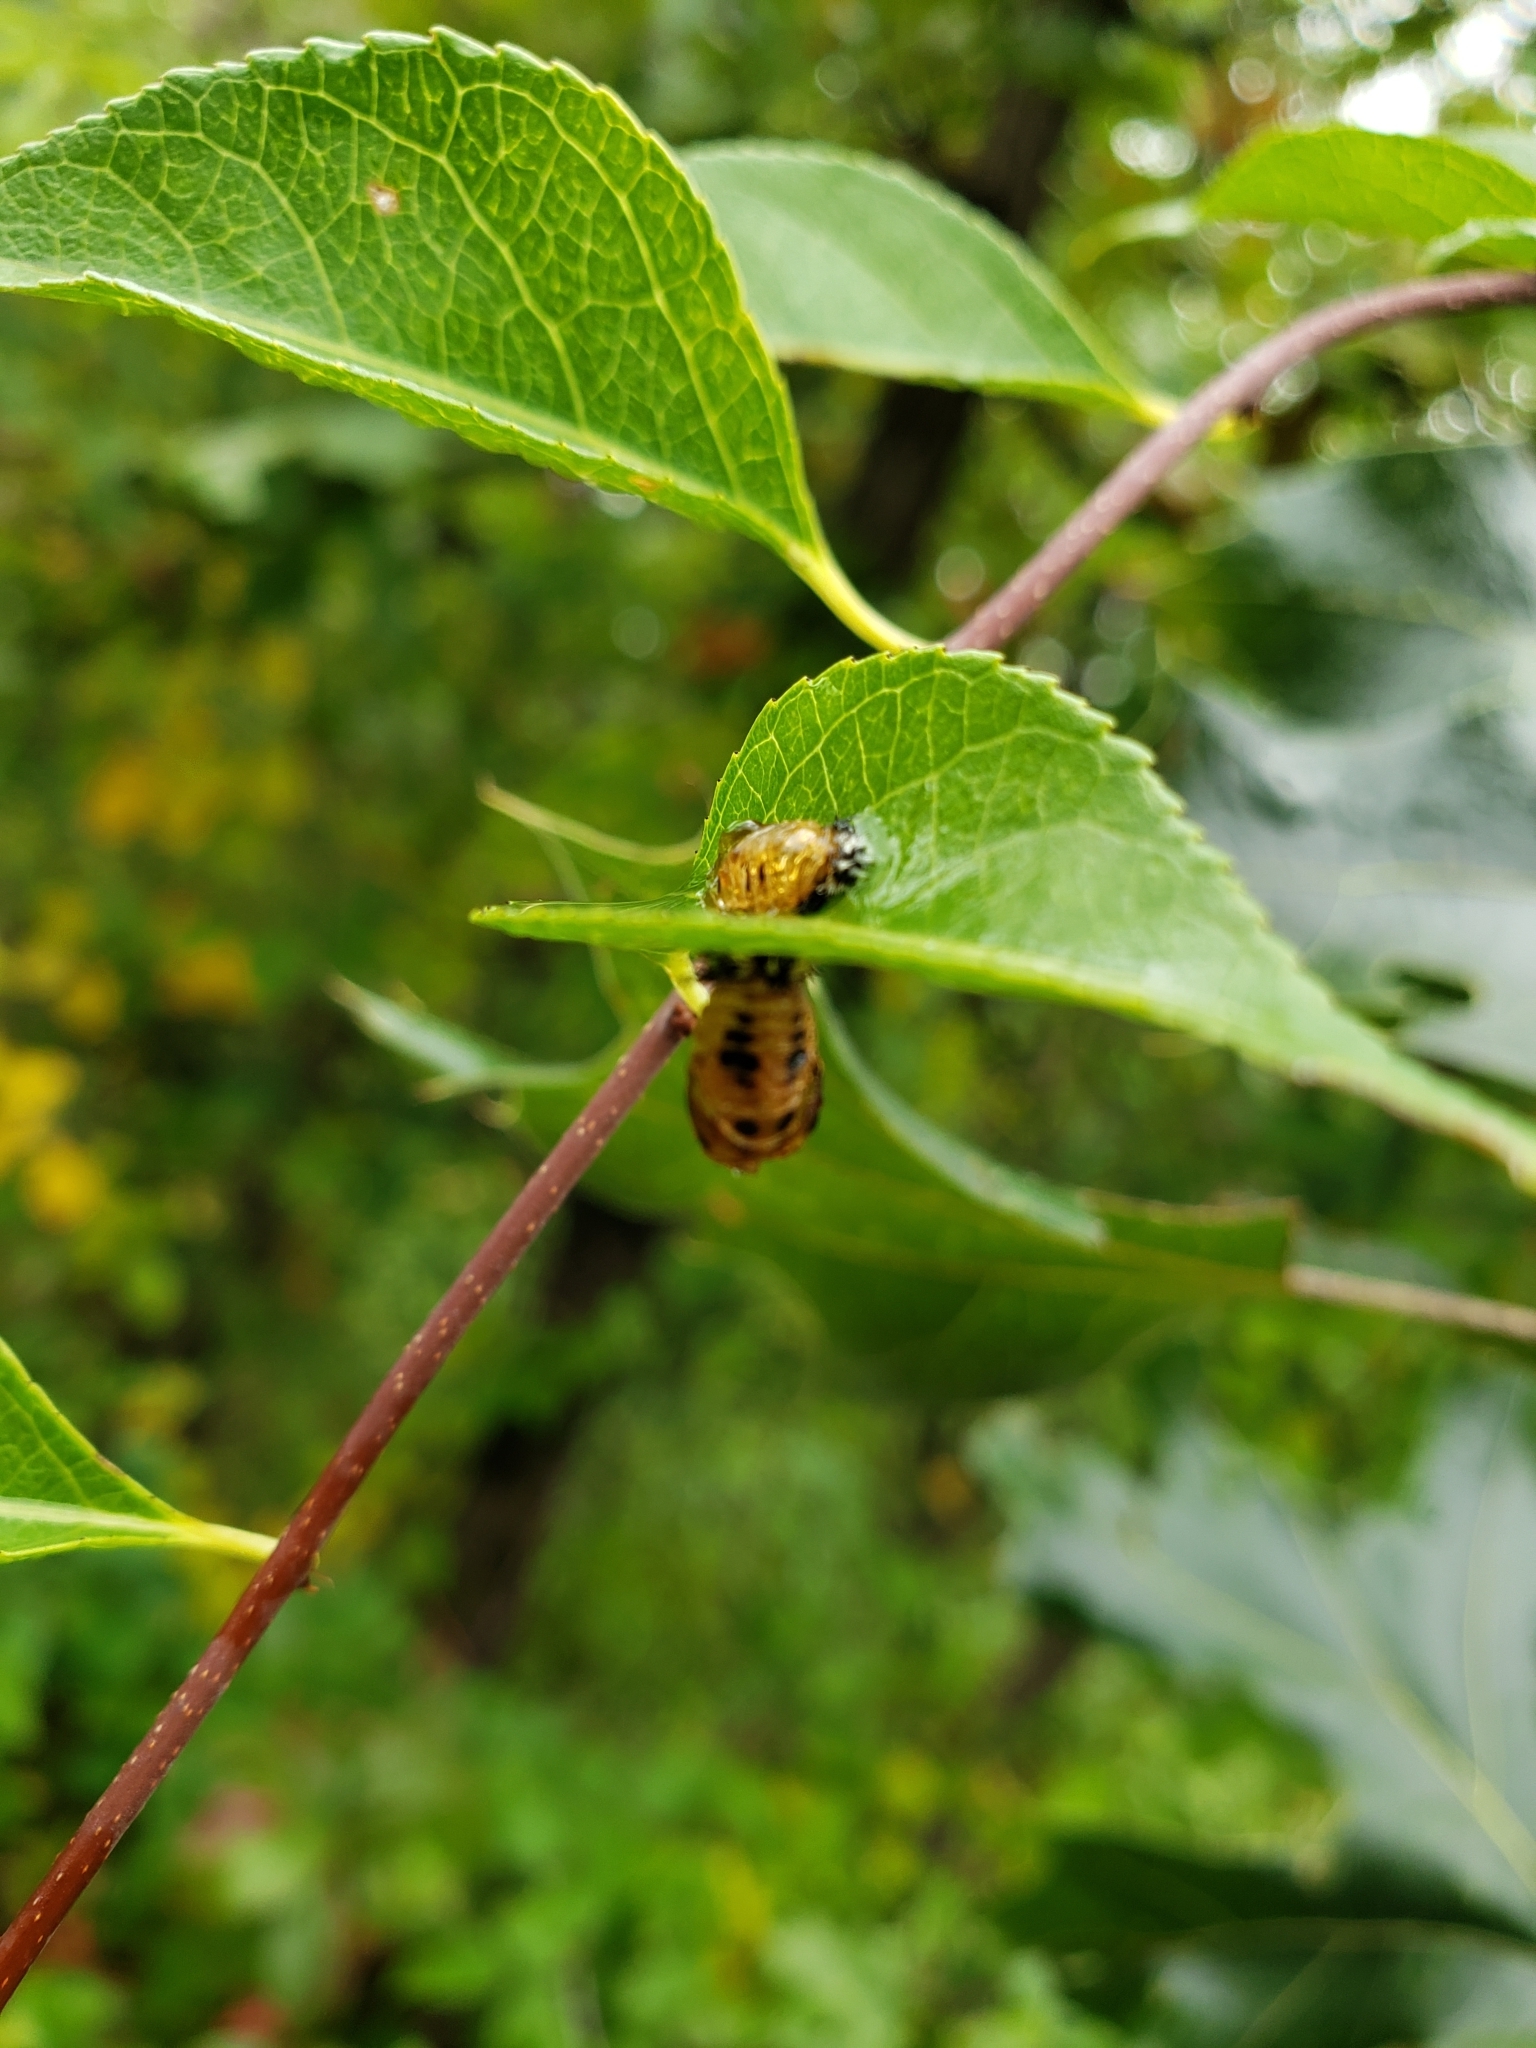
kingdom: Animalia
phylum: Arthropoda
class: Insecta
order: Coleoptera
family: Coccinellidae
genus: Harmonia
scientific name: Harmonia axyridis
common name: Harlequin ladybird
